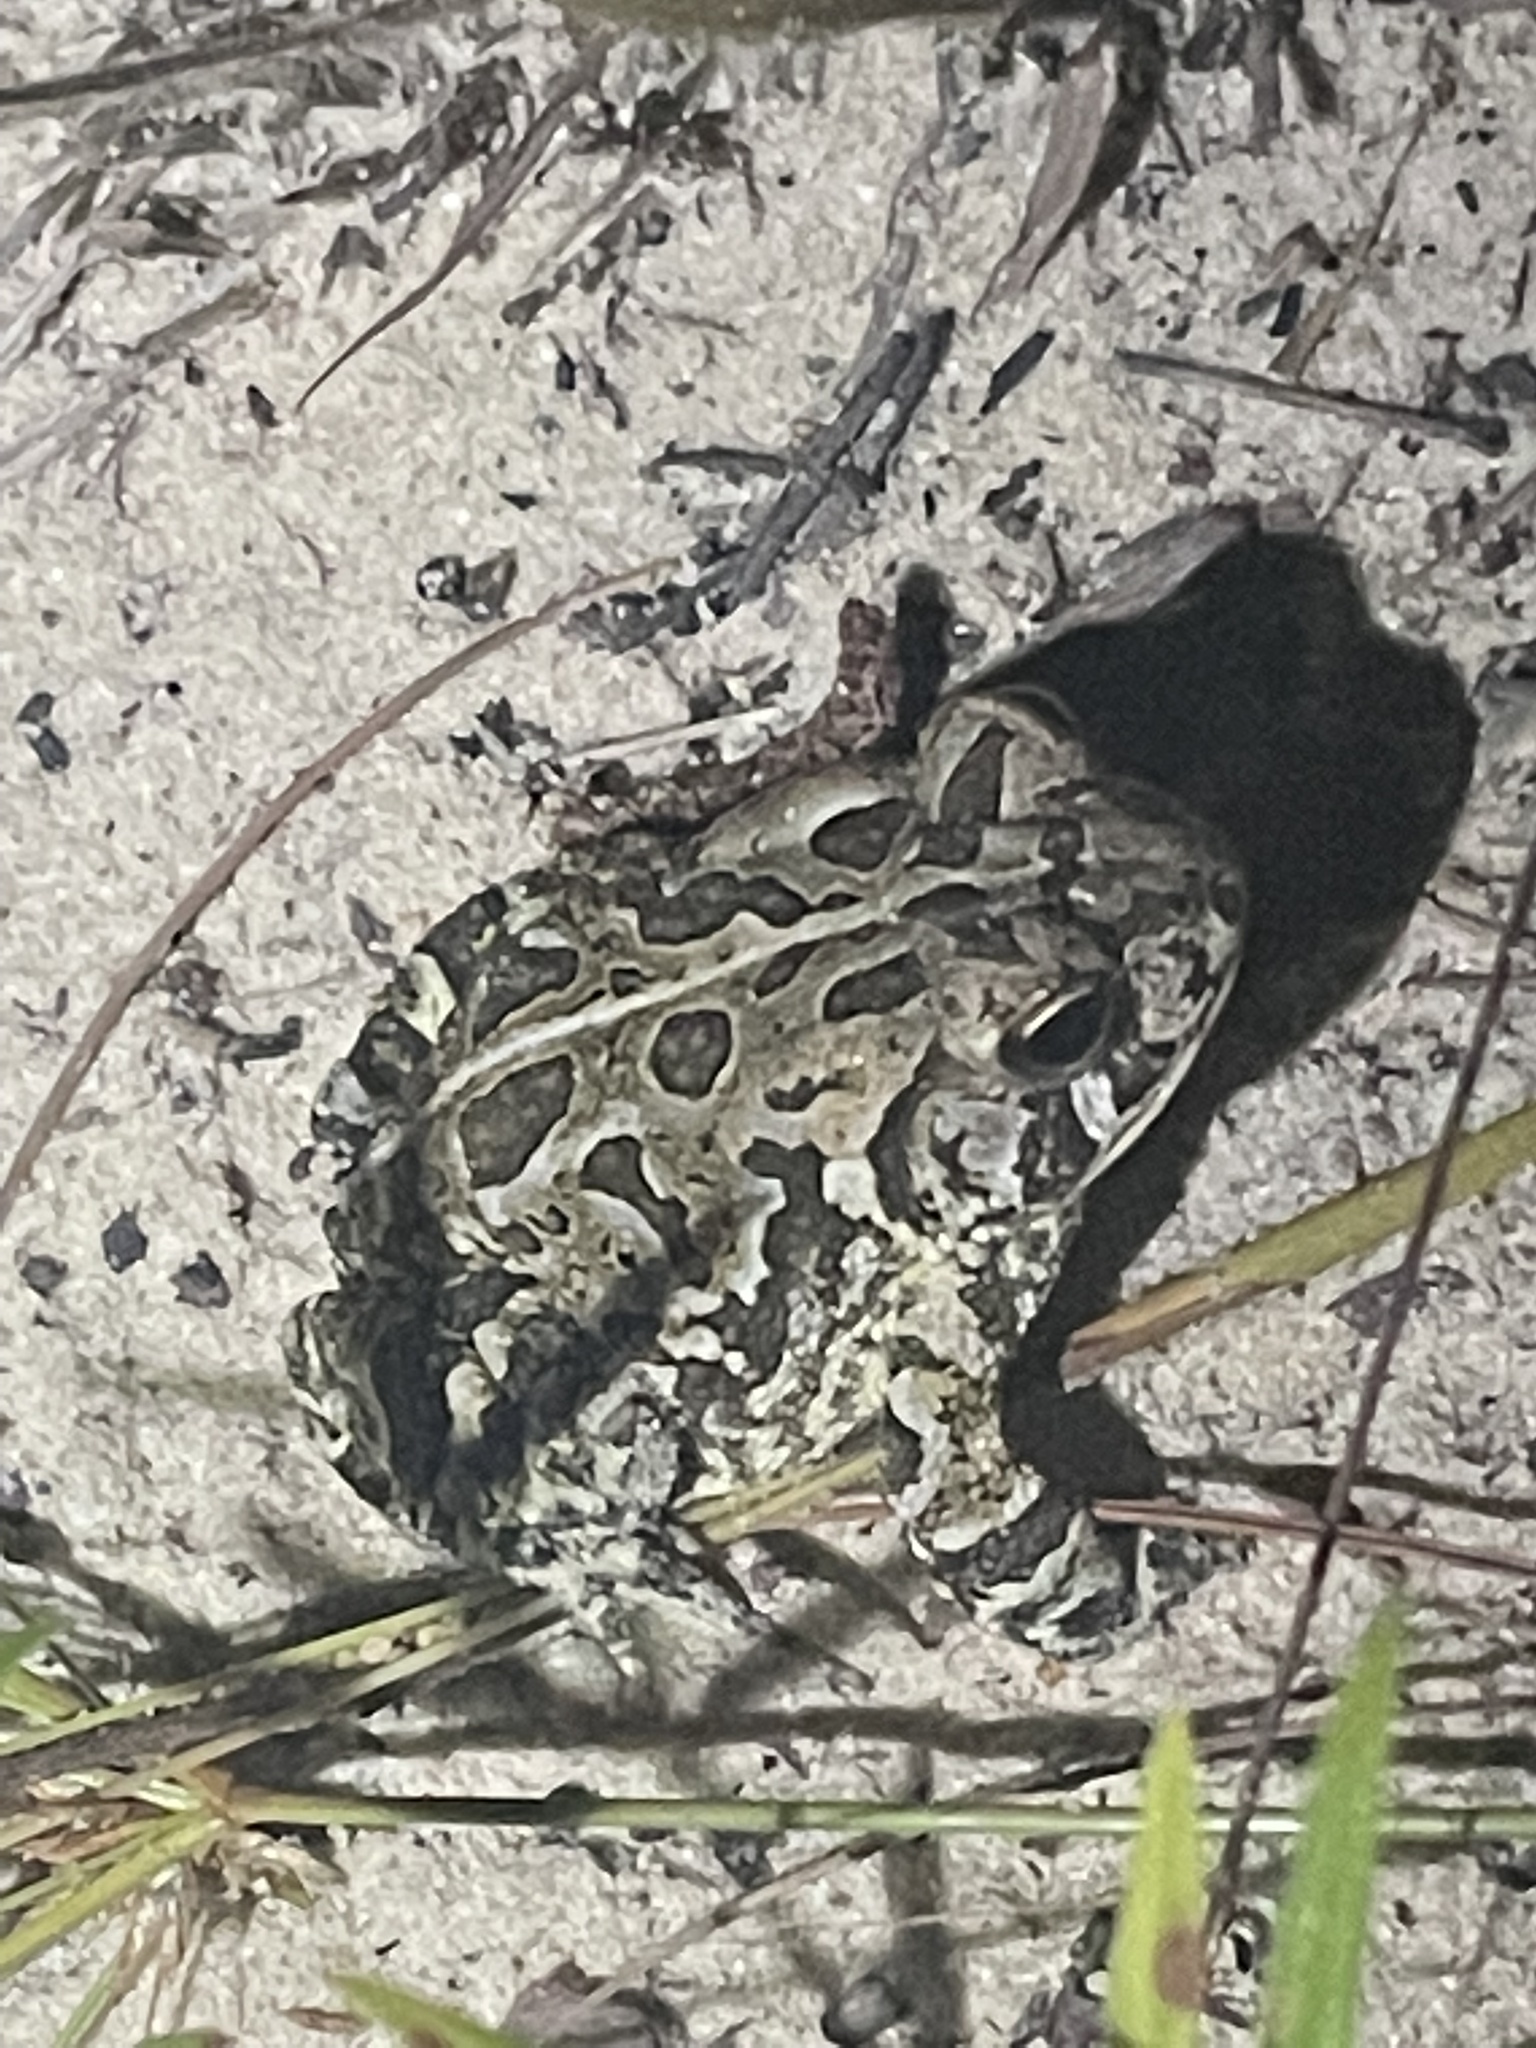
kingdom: Animalia
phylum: Chordata
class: Amphibia
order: Anura
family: Bufonidae
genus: Anaxyrus
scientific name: Anaxyrus fowleri
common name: Fowler's toad
